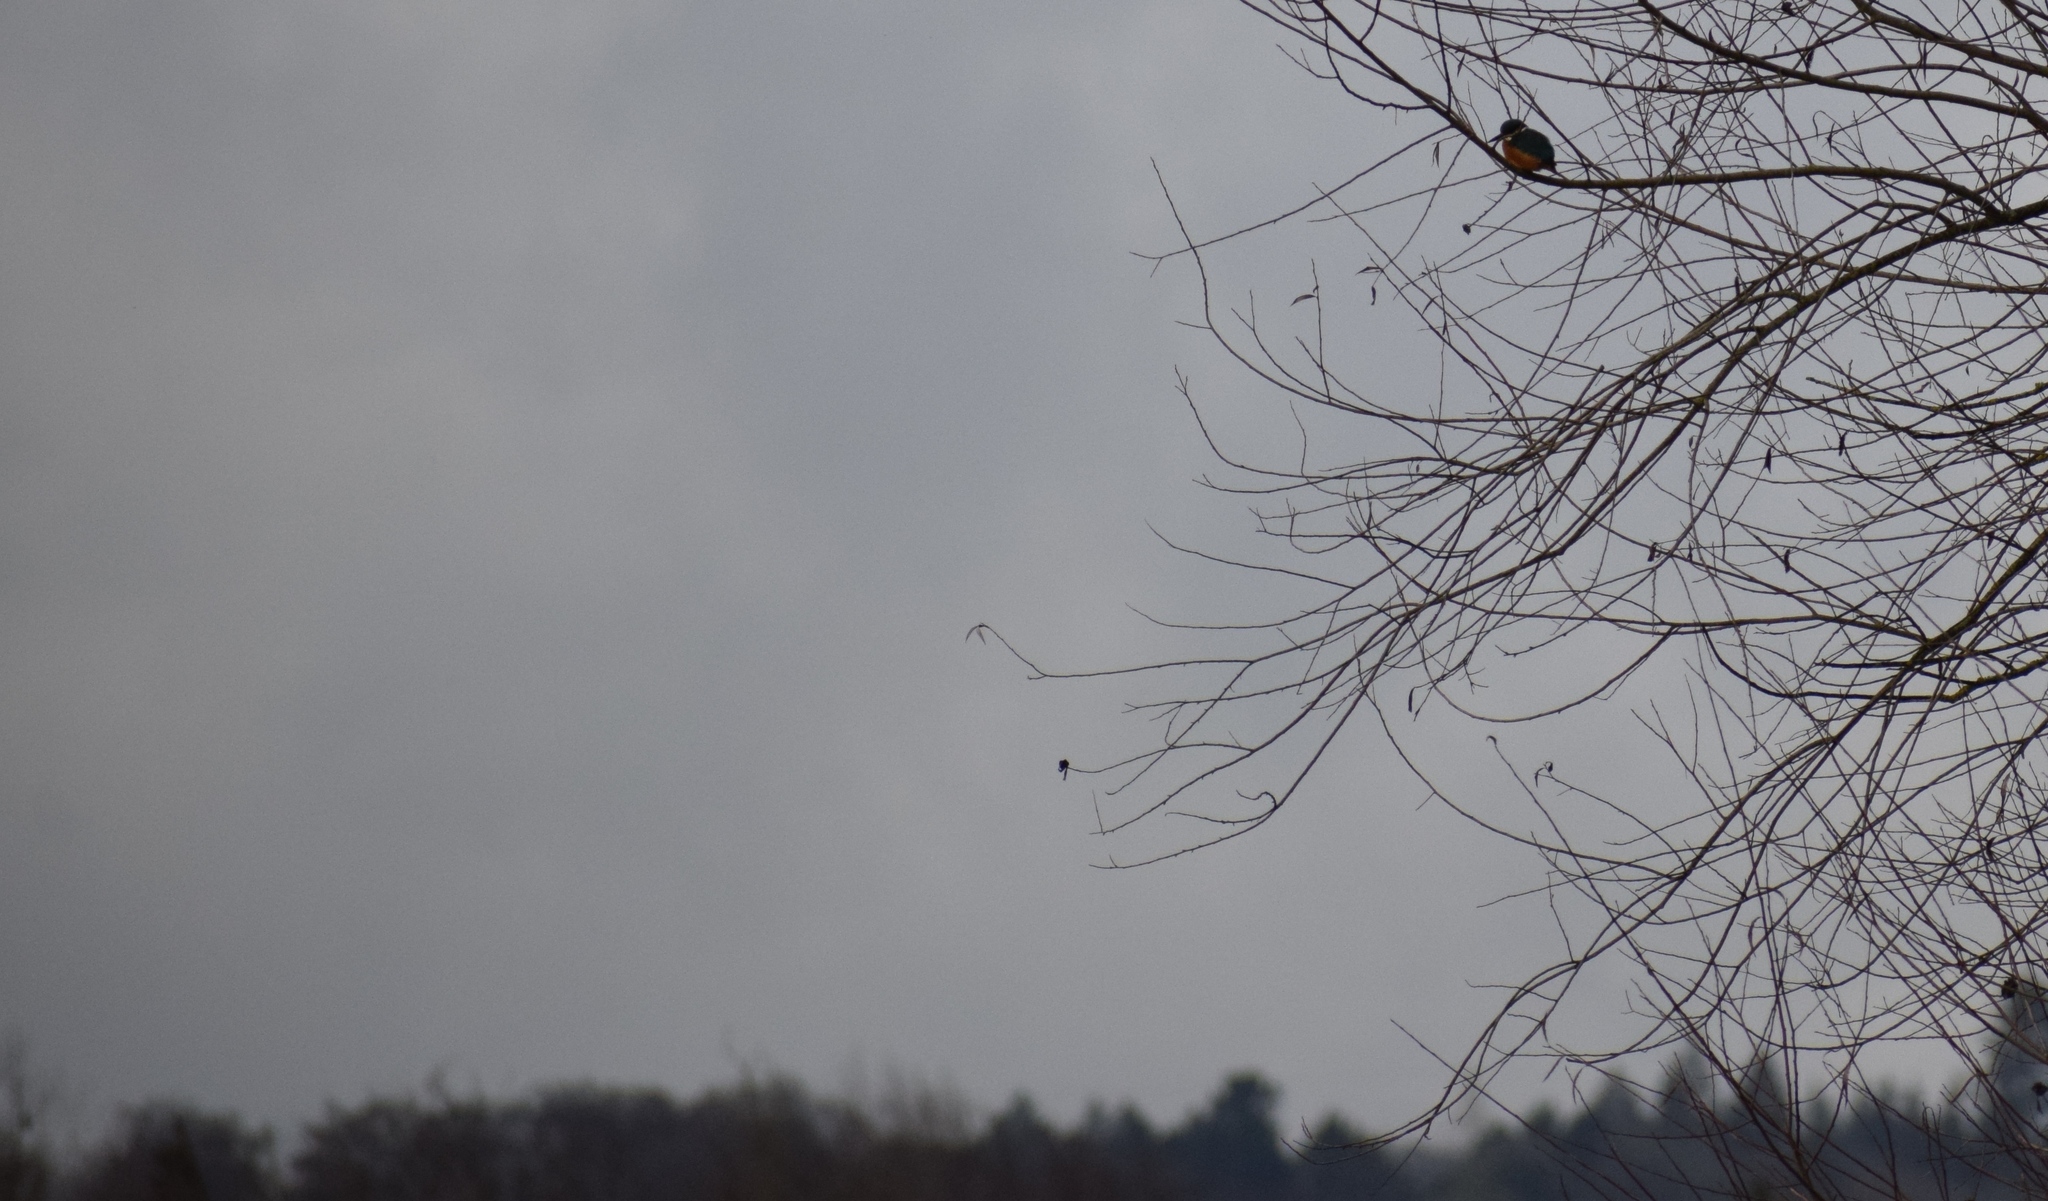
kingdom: Animalia
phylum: Chordata
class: Aves
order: Coraciiformes
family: Alcedinidae
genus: Alcedo
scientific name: Alcedo atthis
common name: Common kingfisher
